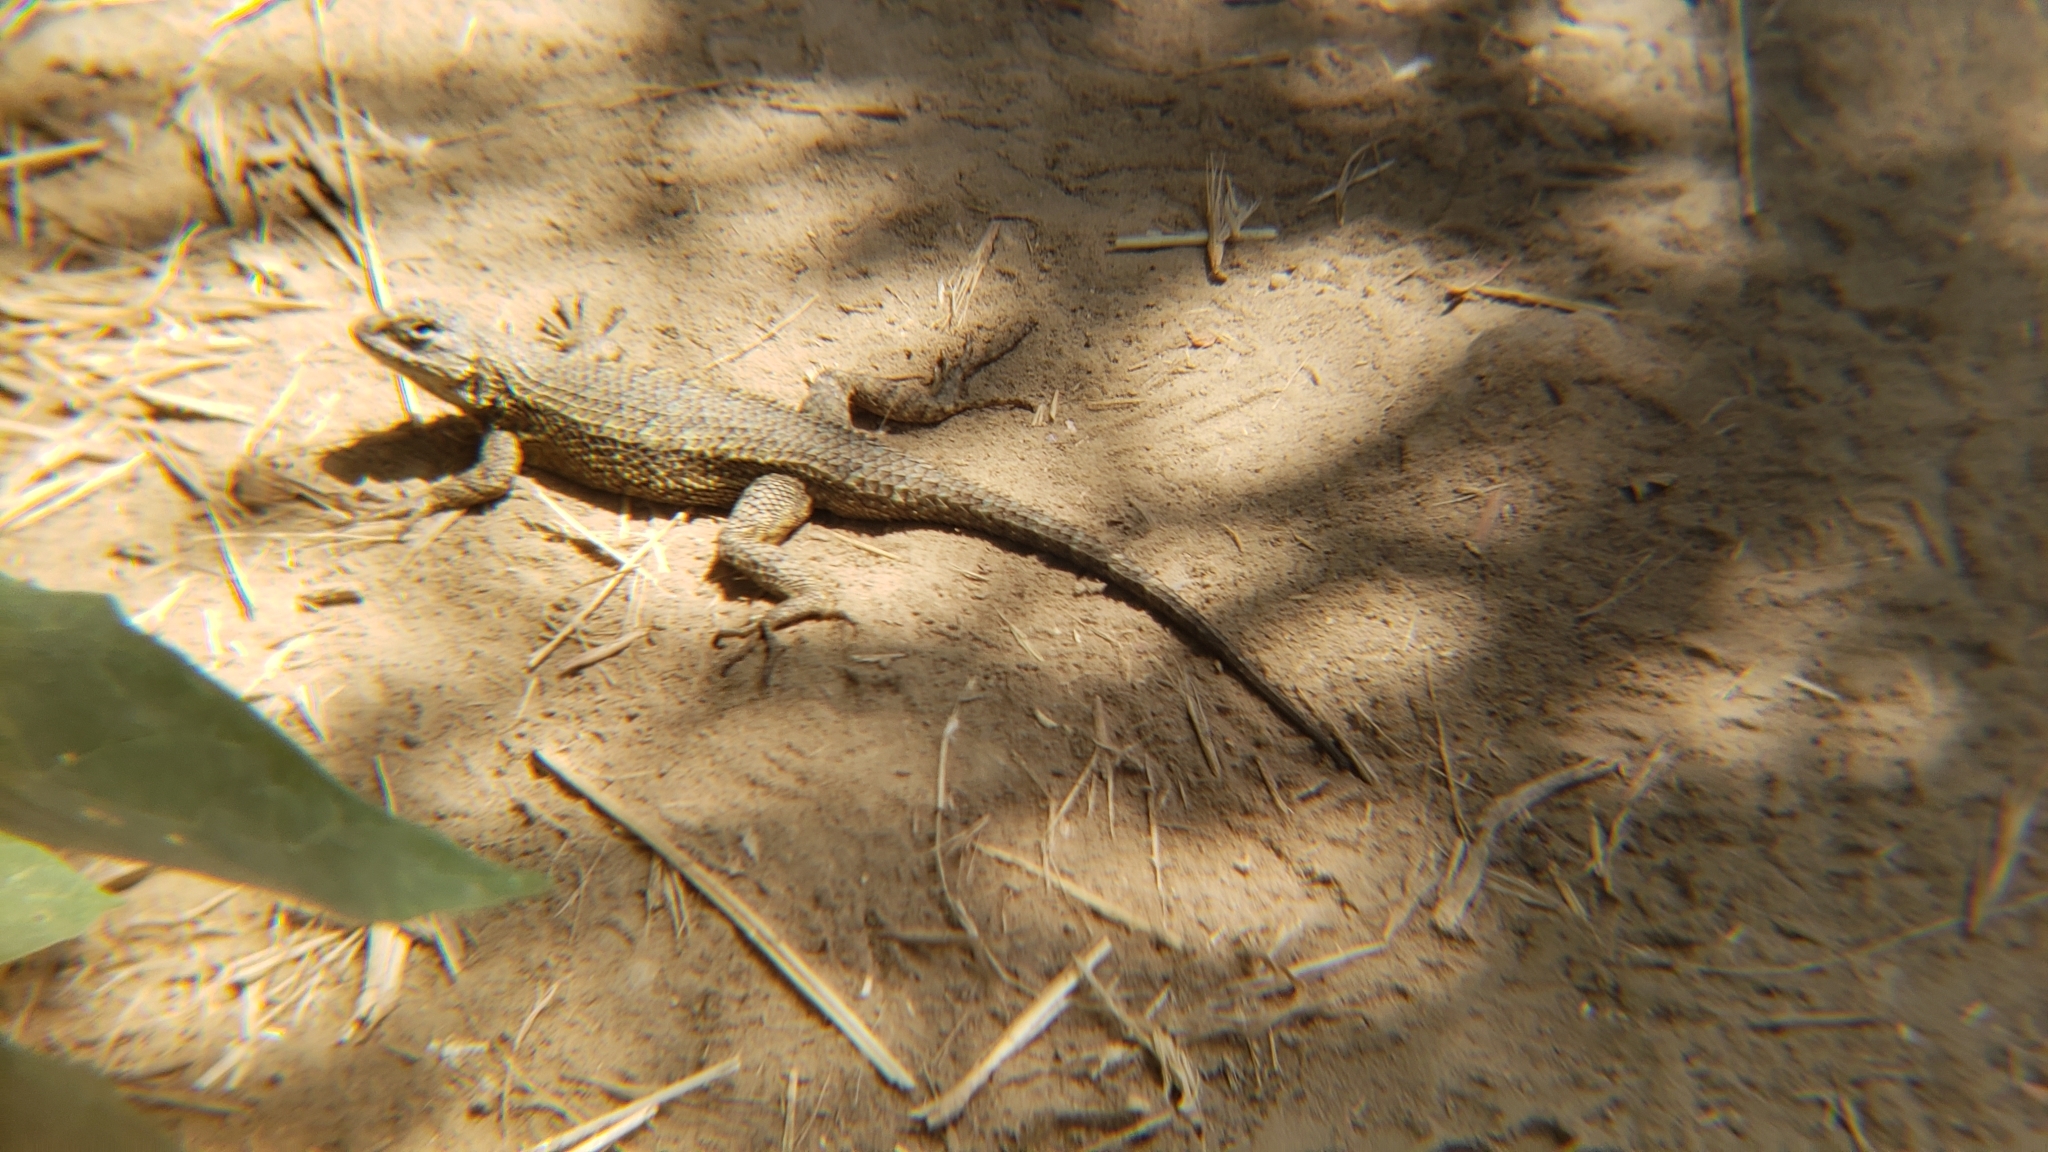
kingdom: Animalia
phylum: Chordata
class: Squamata
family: Phrynosomatidae
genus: Sceloporus
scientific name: Sceloporus occidentalis
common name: Western fence lizard
